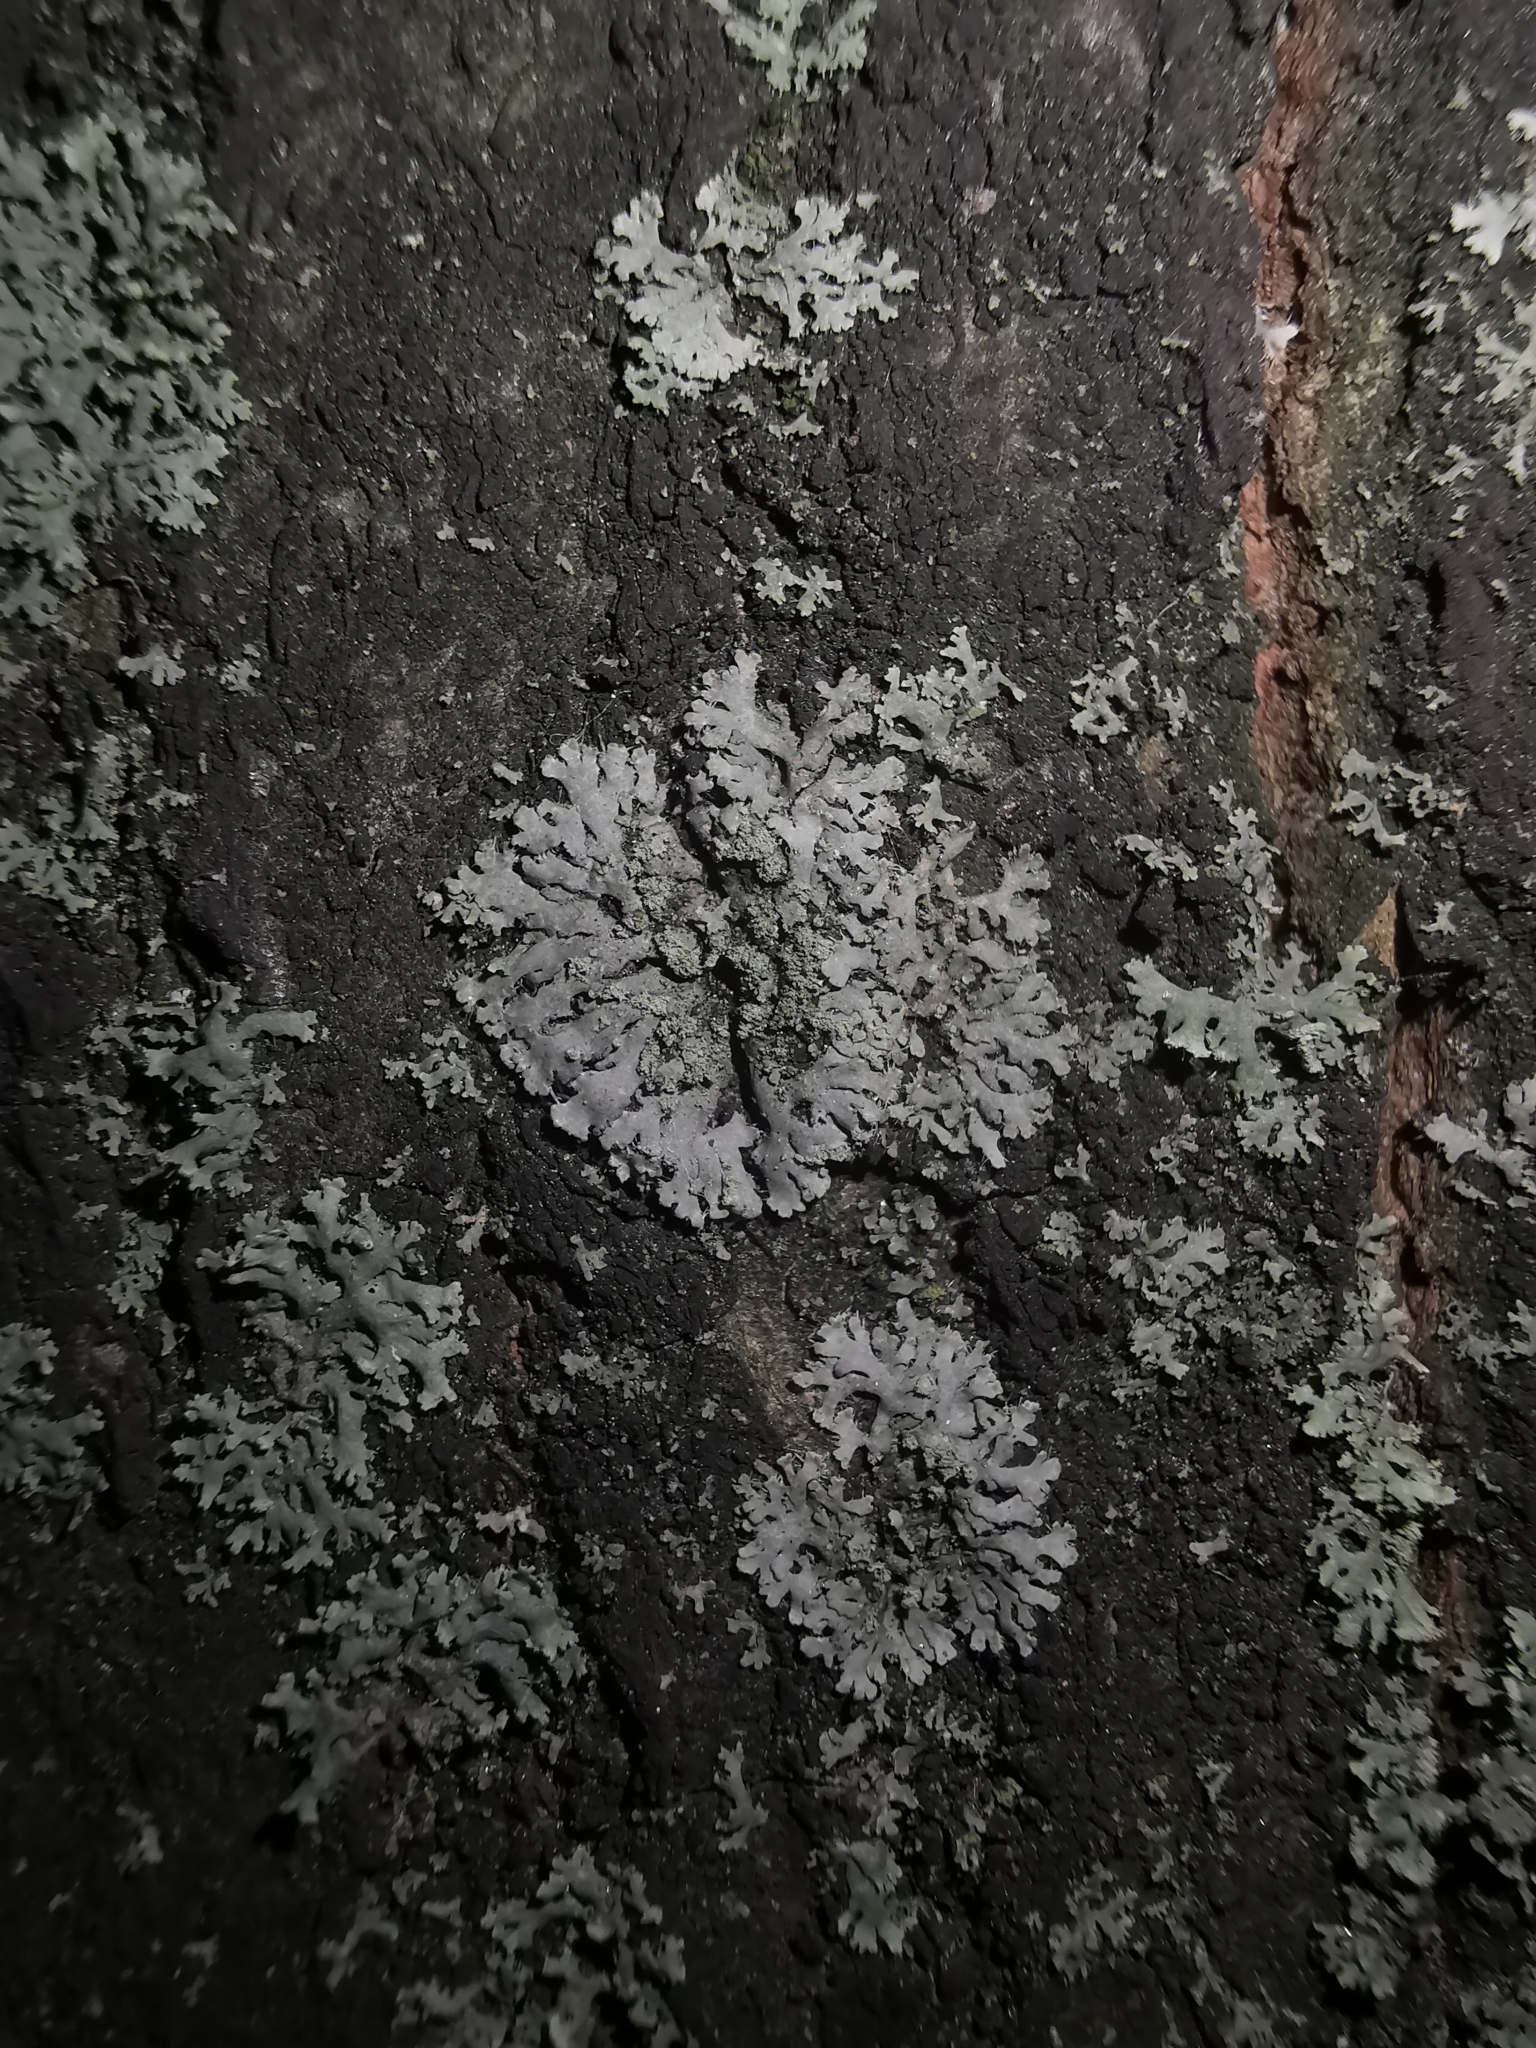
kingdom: Fungi
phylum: Ascomycota
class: Lecanoromycetes
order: Caliciales
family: Physciaceae
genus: Phaeophyscia
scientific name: Phaeophyscia orbicularis
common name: Mealy shadow lichen
